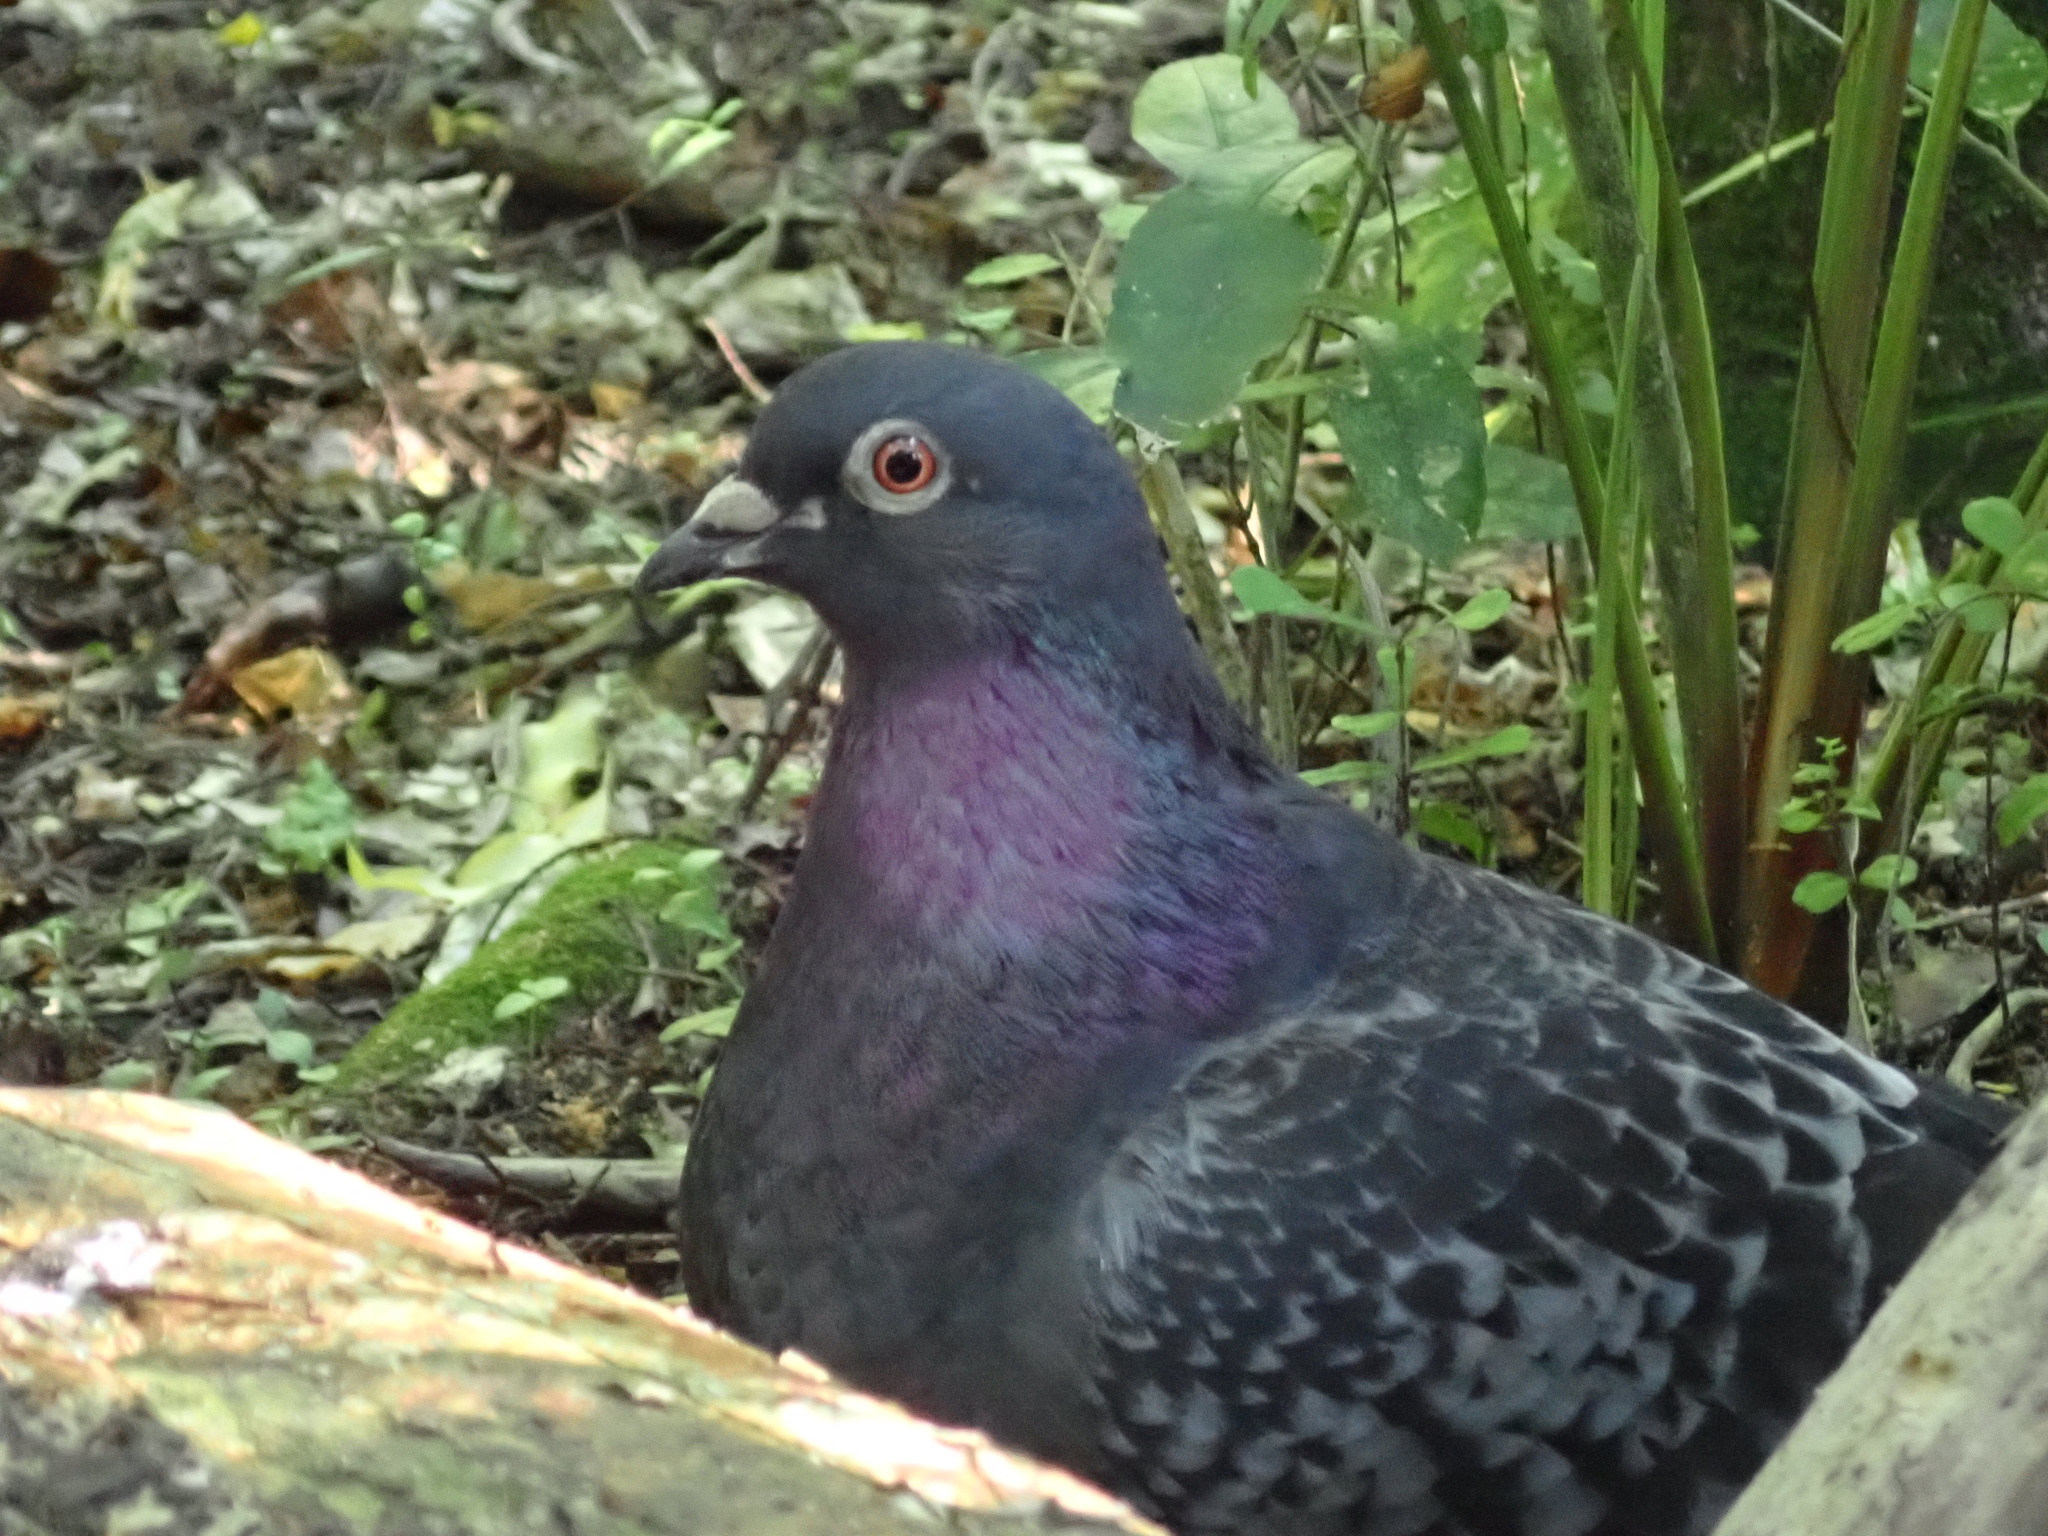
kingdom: Animalia
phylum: Chordata
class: Aves
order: Columbiformes
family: Columbidae
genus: Columba
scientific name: Columba livia
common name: Rock pigeon
